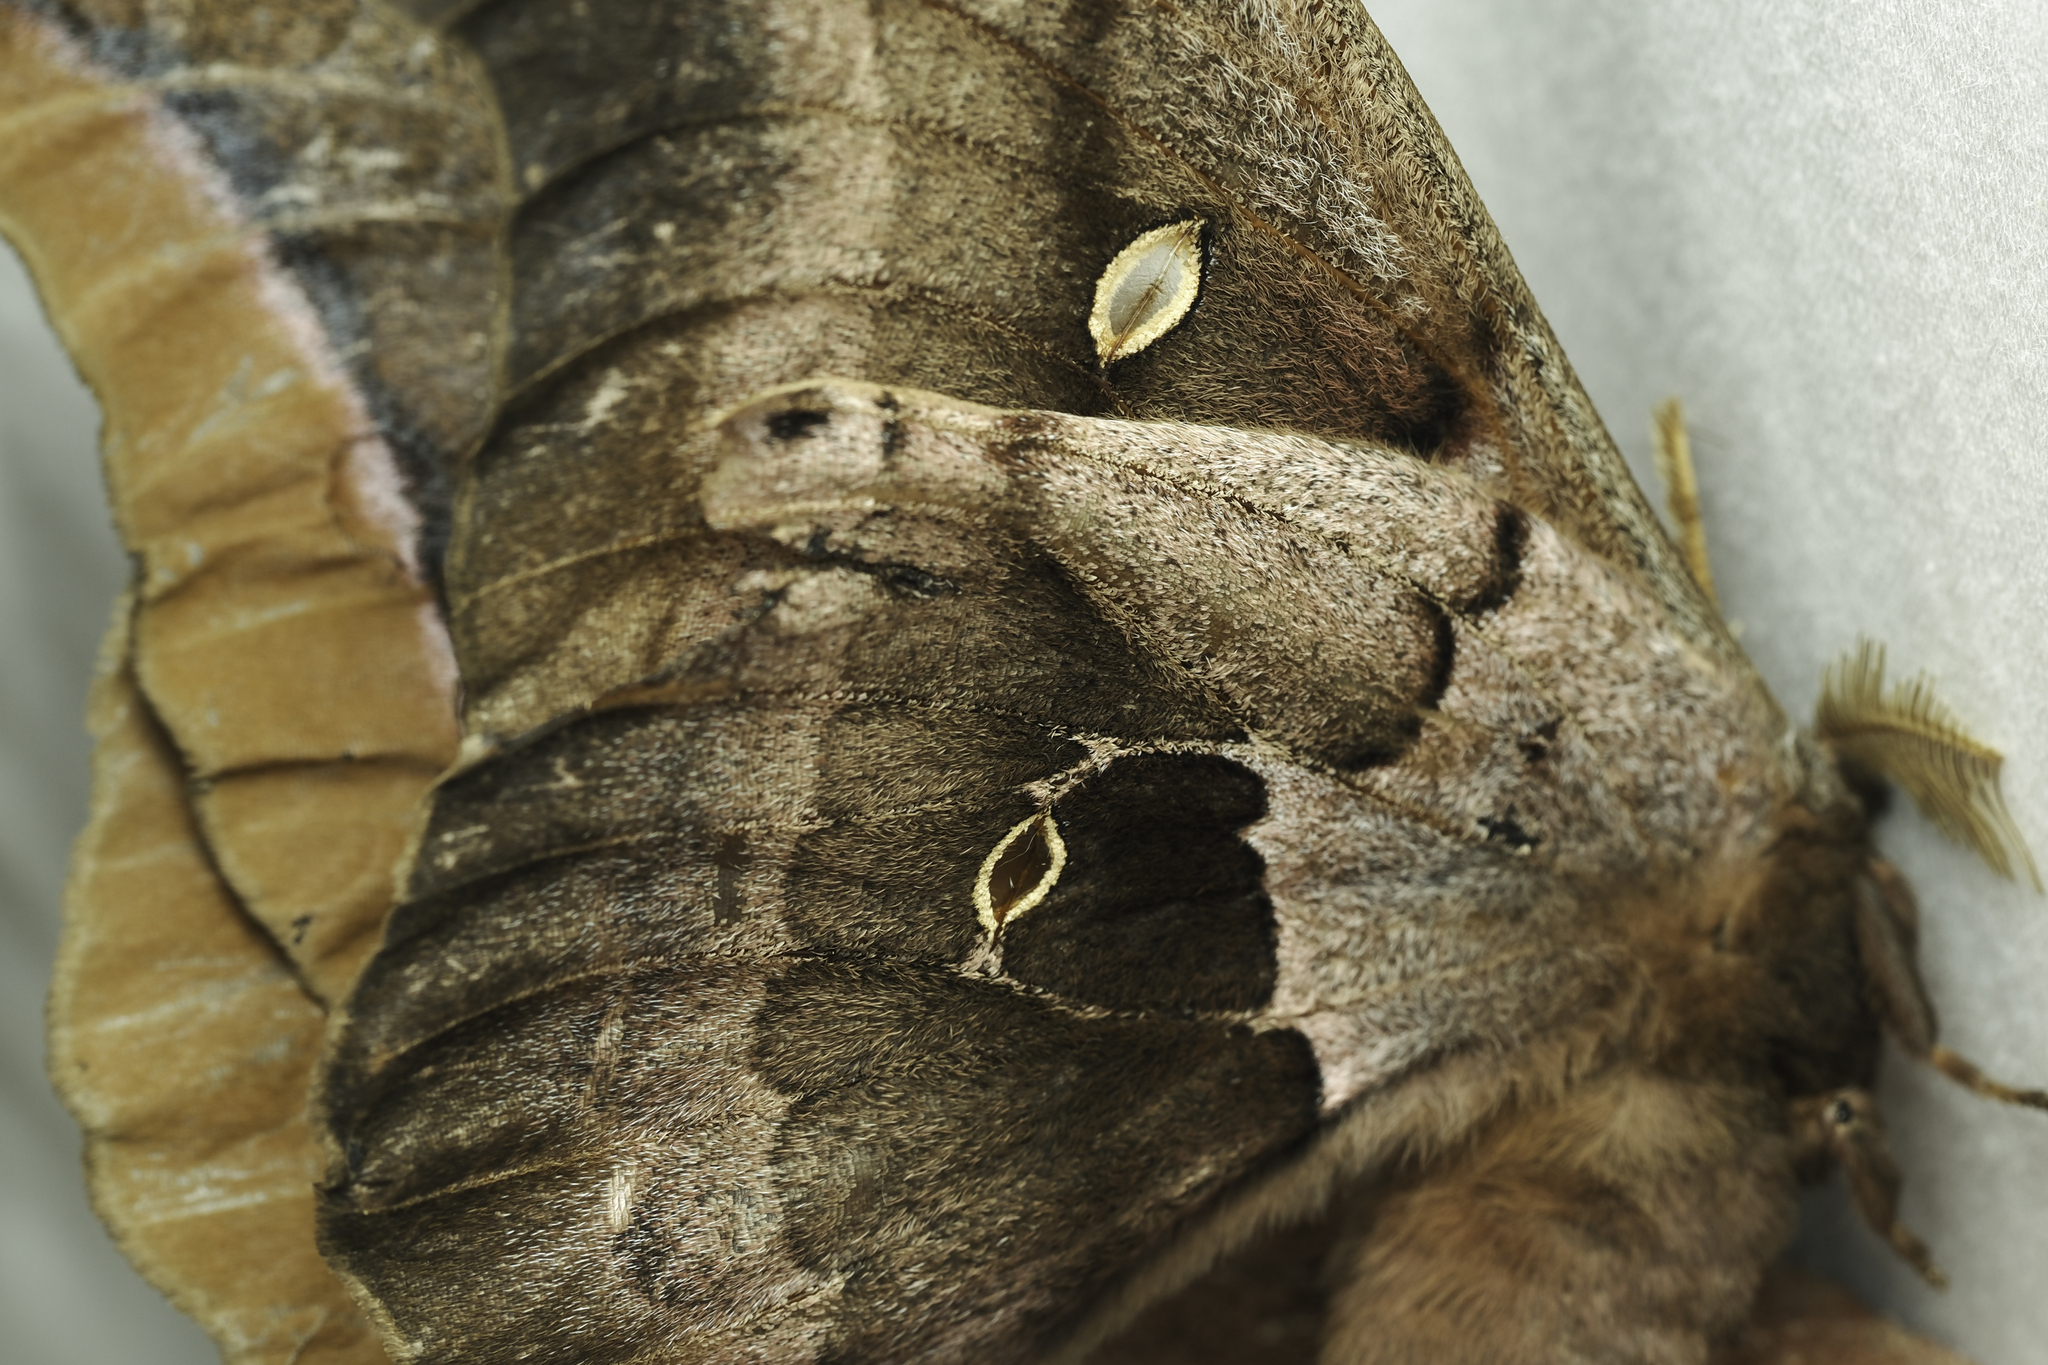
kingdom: Animalia
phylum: Arthropoda
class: Insecta
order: Lepidoptera
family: Saturniidae
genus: Antheraea
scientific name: Antheraea polyphemus
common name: Polyphemus moth
